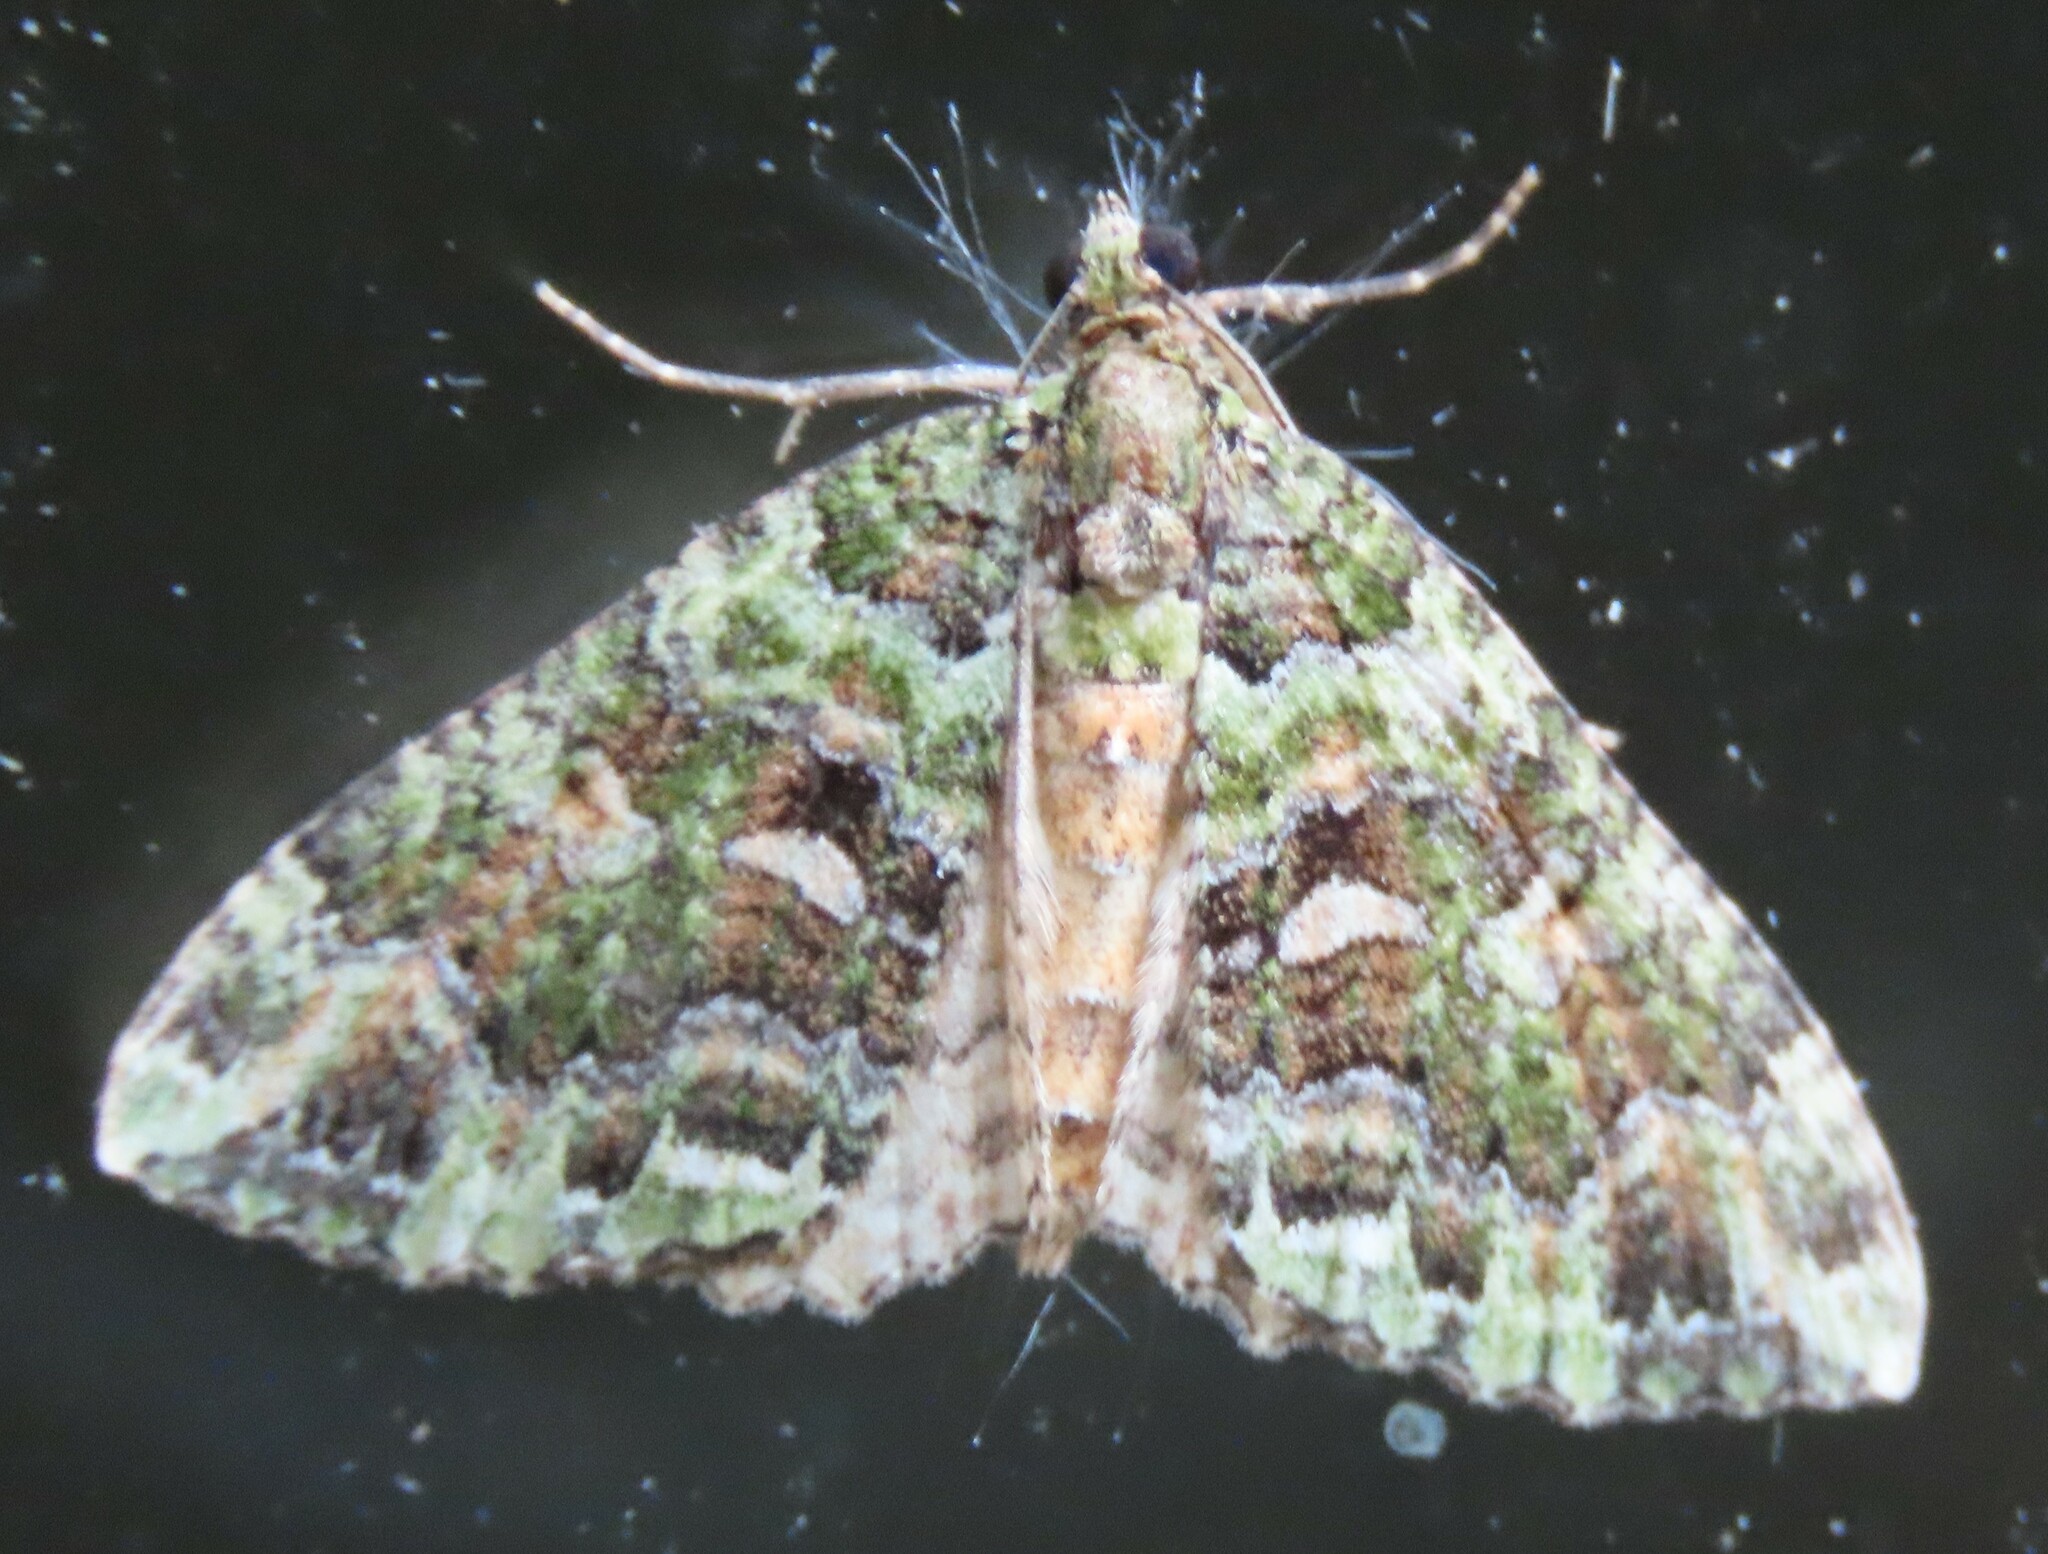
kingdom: Animalia
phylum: Arthropoda
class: Insecta
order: Lepidoptera
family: Geometridae
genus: Austrocidaria
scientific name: Austrocidaria similata
